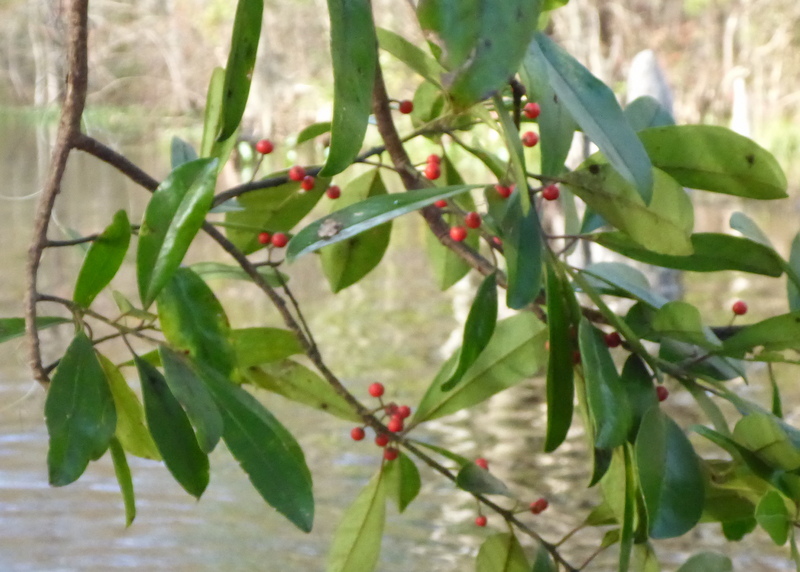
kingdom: Plantae
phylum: Tracheophyta
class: Magnoliopsida
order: Aquifoliales
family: Aquifoliaceae
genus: Ilex
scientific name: Ilex cassine
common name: Dahoon
